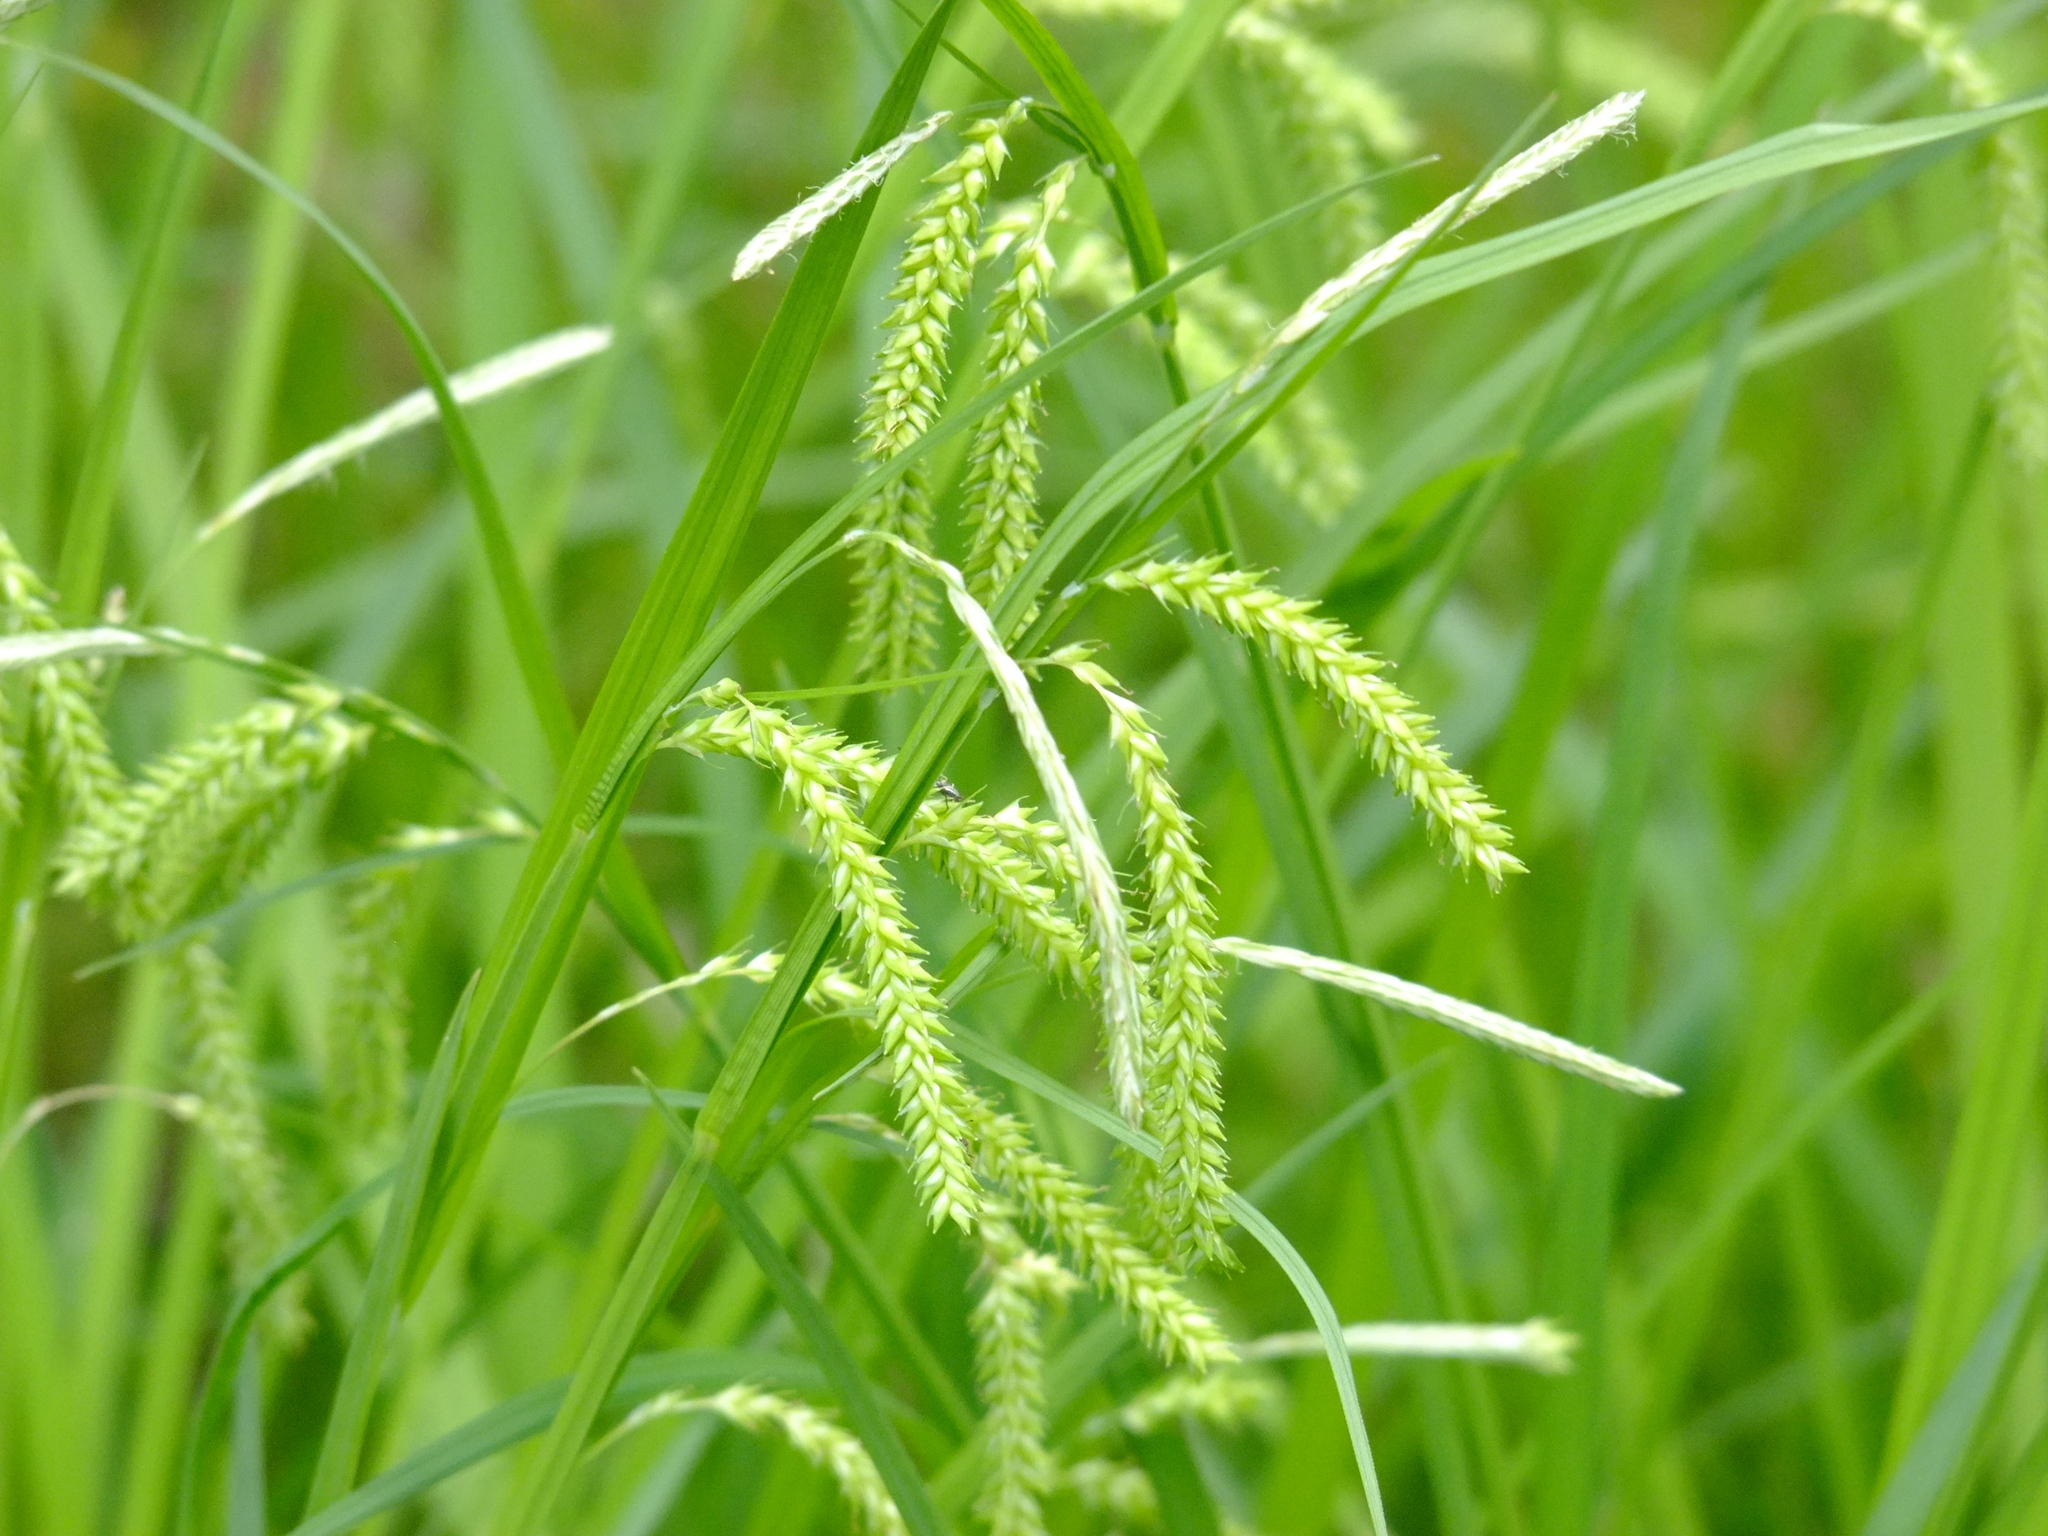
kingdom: Plantae
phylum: Tracheophyta
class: Liliopsida
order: Poales
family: Cyperaceae
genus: Carex
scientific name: Carex prasina
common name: Drooping sedge
